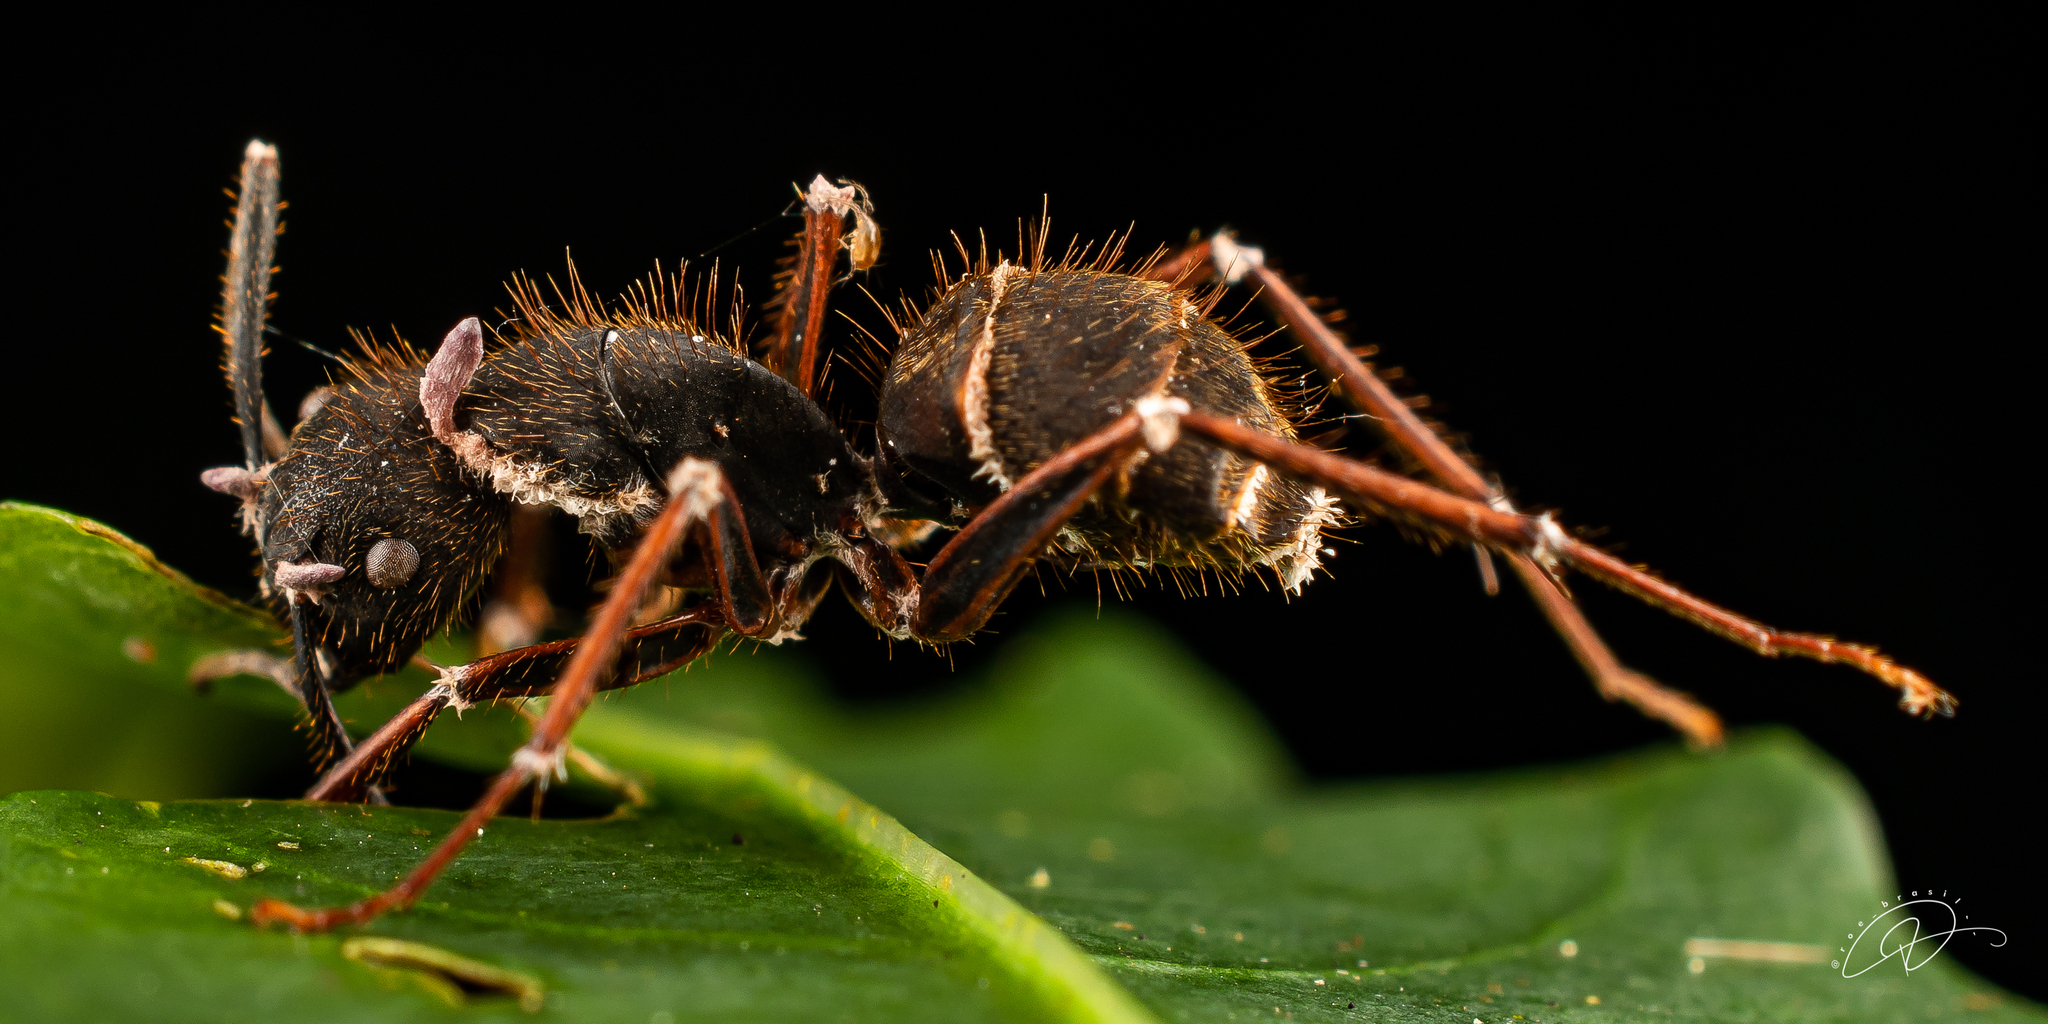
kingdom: Fungi
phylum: Ascomycota
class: Sordariomycetes
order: Hypocreales
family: Ophiocordycipitaceae
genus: Ophiocordyceps
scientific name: Ophiocordyceps camponoti-rufipedis
